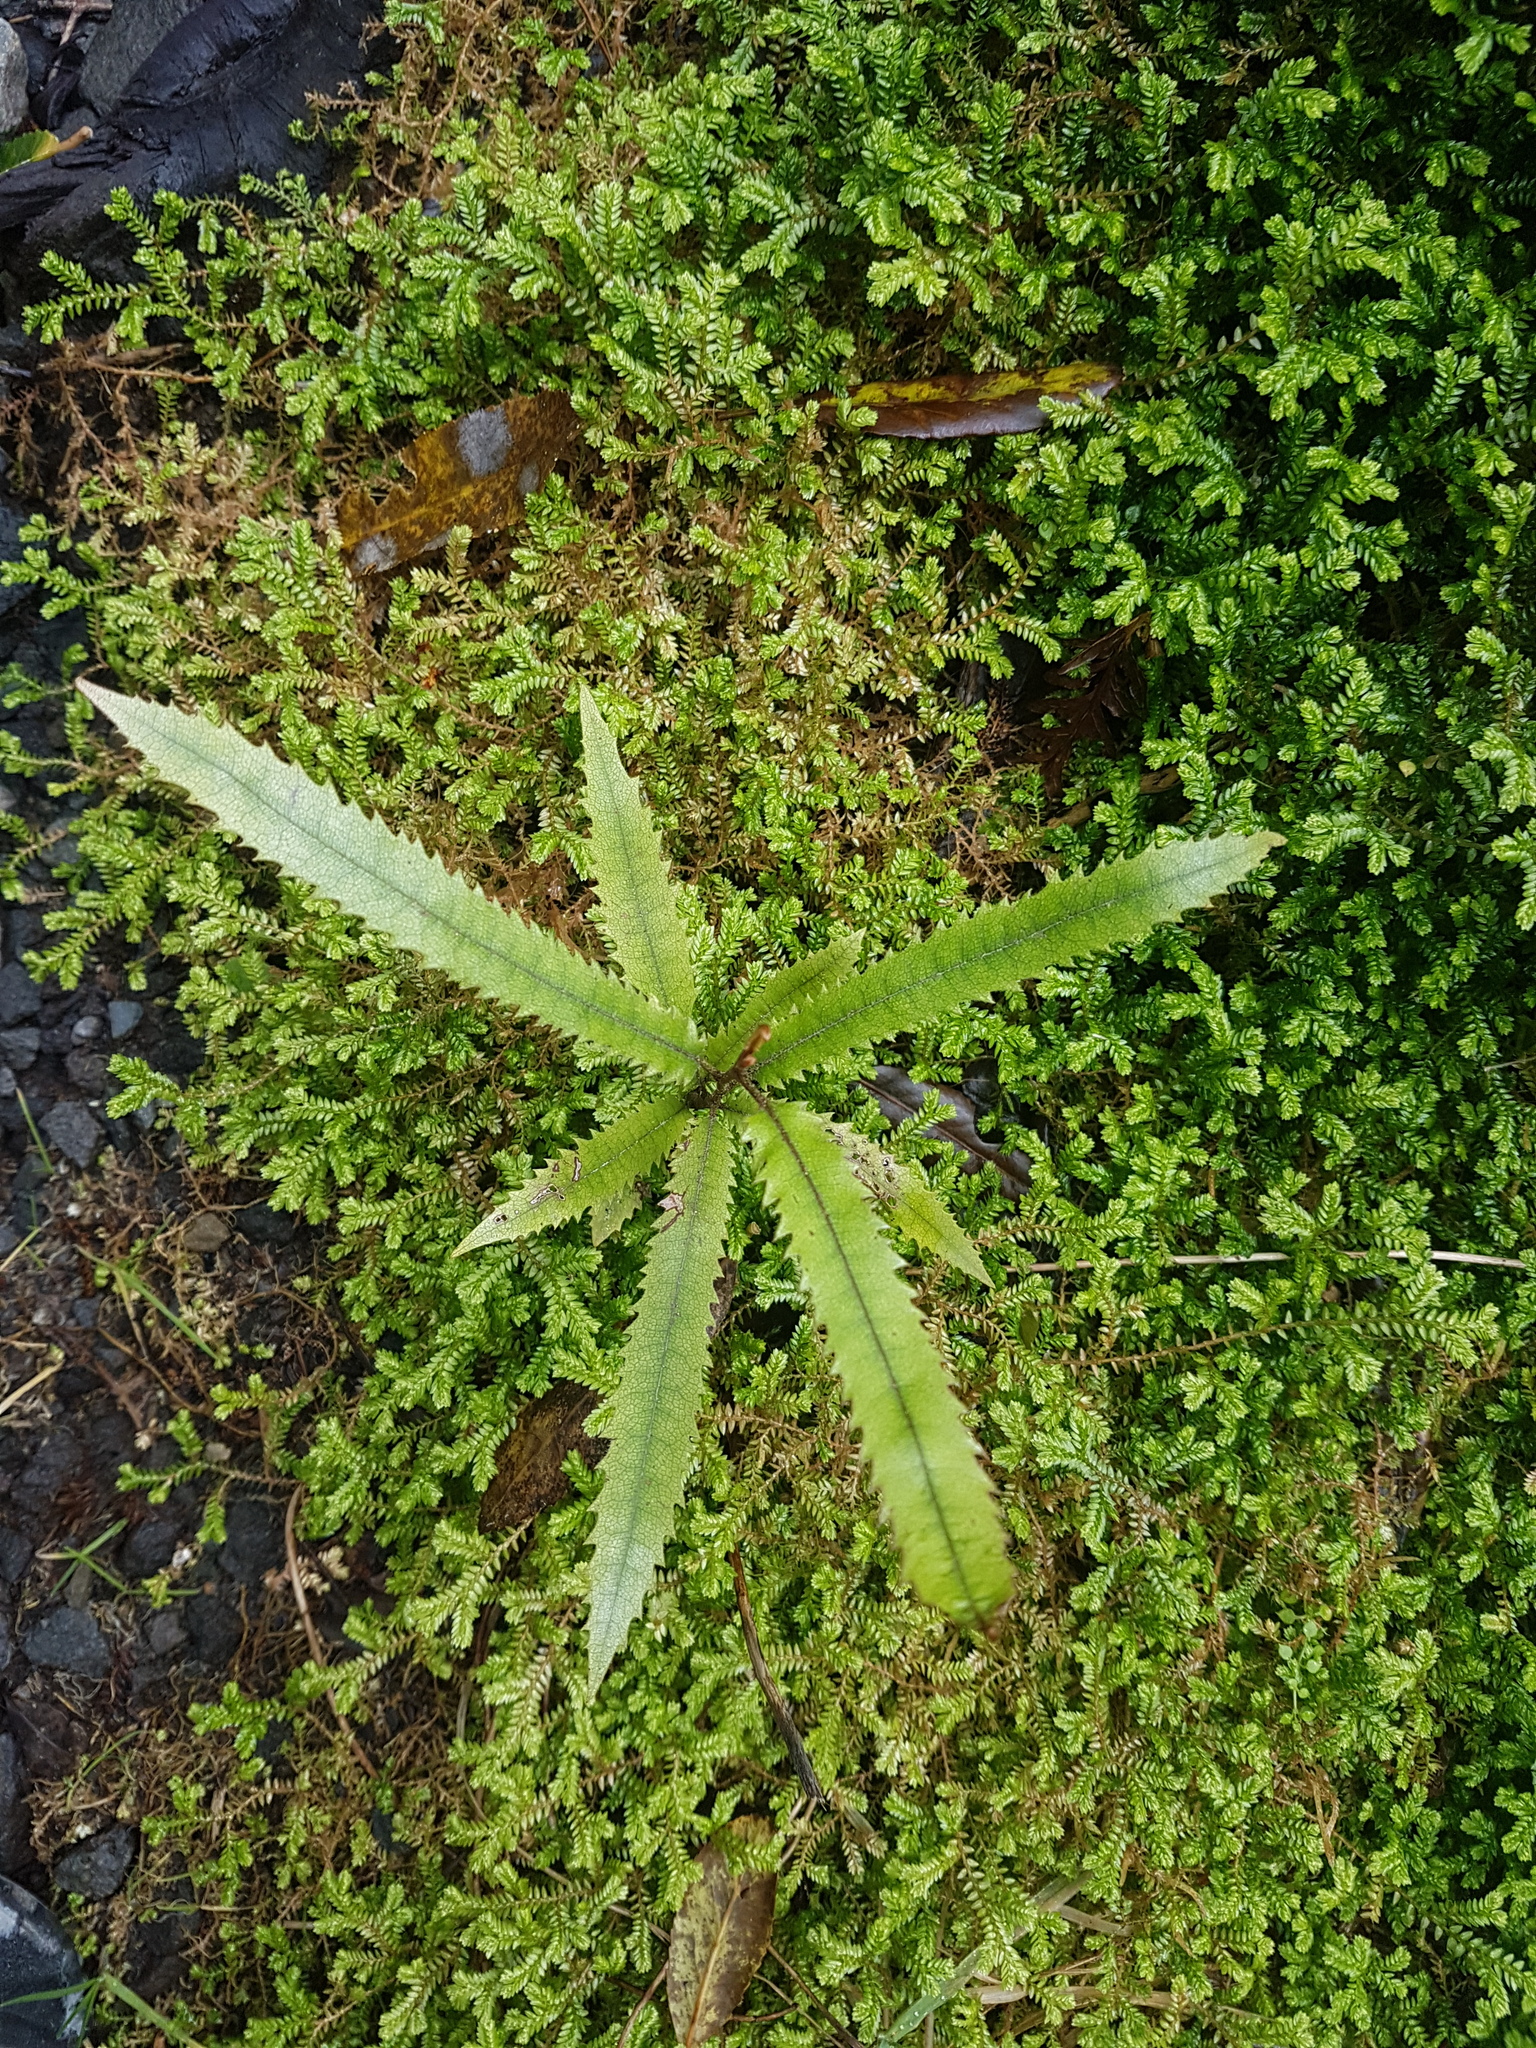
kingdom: Plantae
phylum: Tracheophyta
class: Magnoliopsida
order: Proteales
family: Proteaceae
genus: Knightia
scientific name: Knightia excelsa
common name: New zealand-honeysuckle
